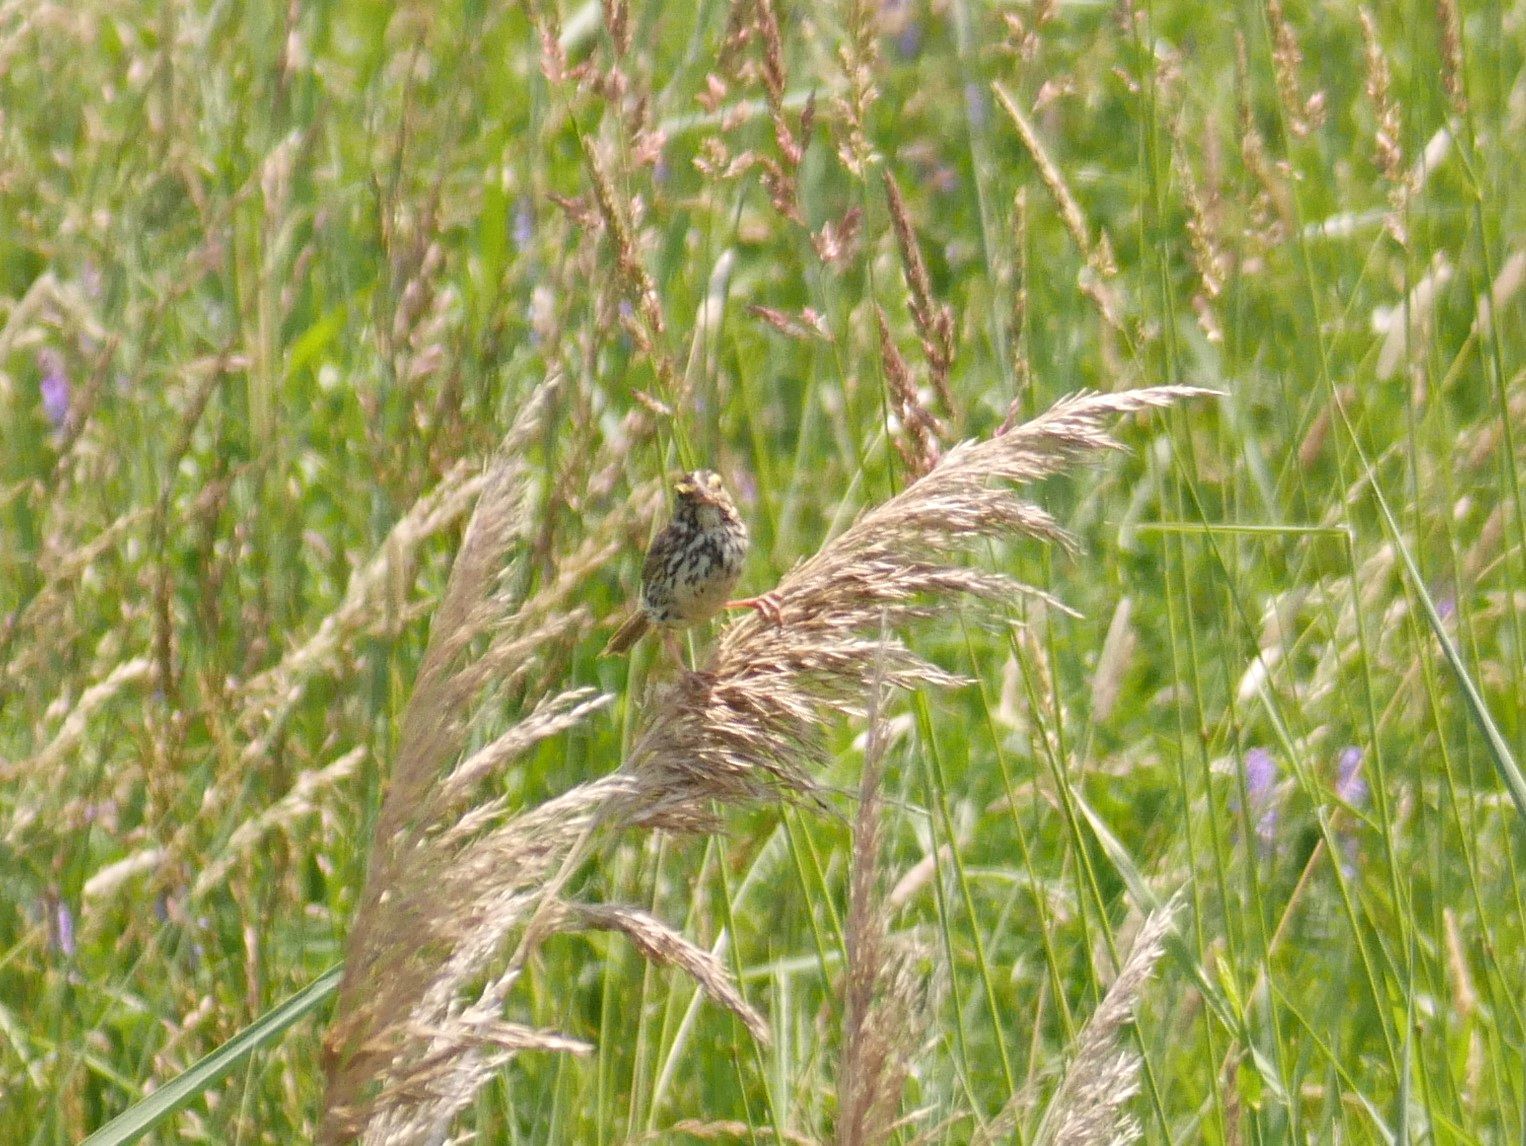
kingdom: Animalia
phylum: Chordata
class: Aves
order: Passeriformes
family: Passerellidae
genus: Passerculus
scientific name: Passerculus sandwichensis
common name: Savannah sparrow
